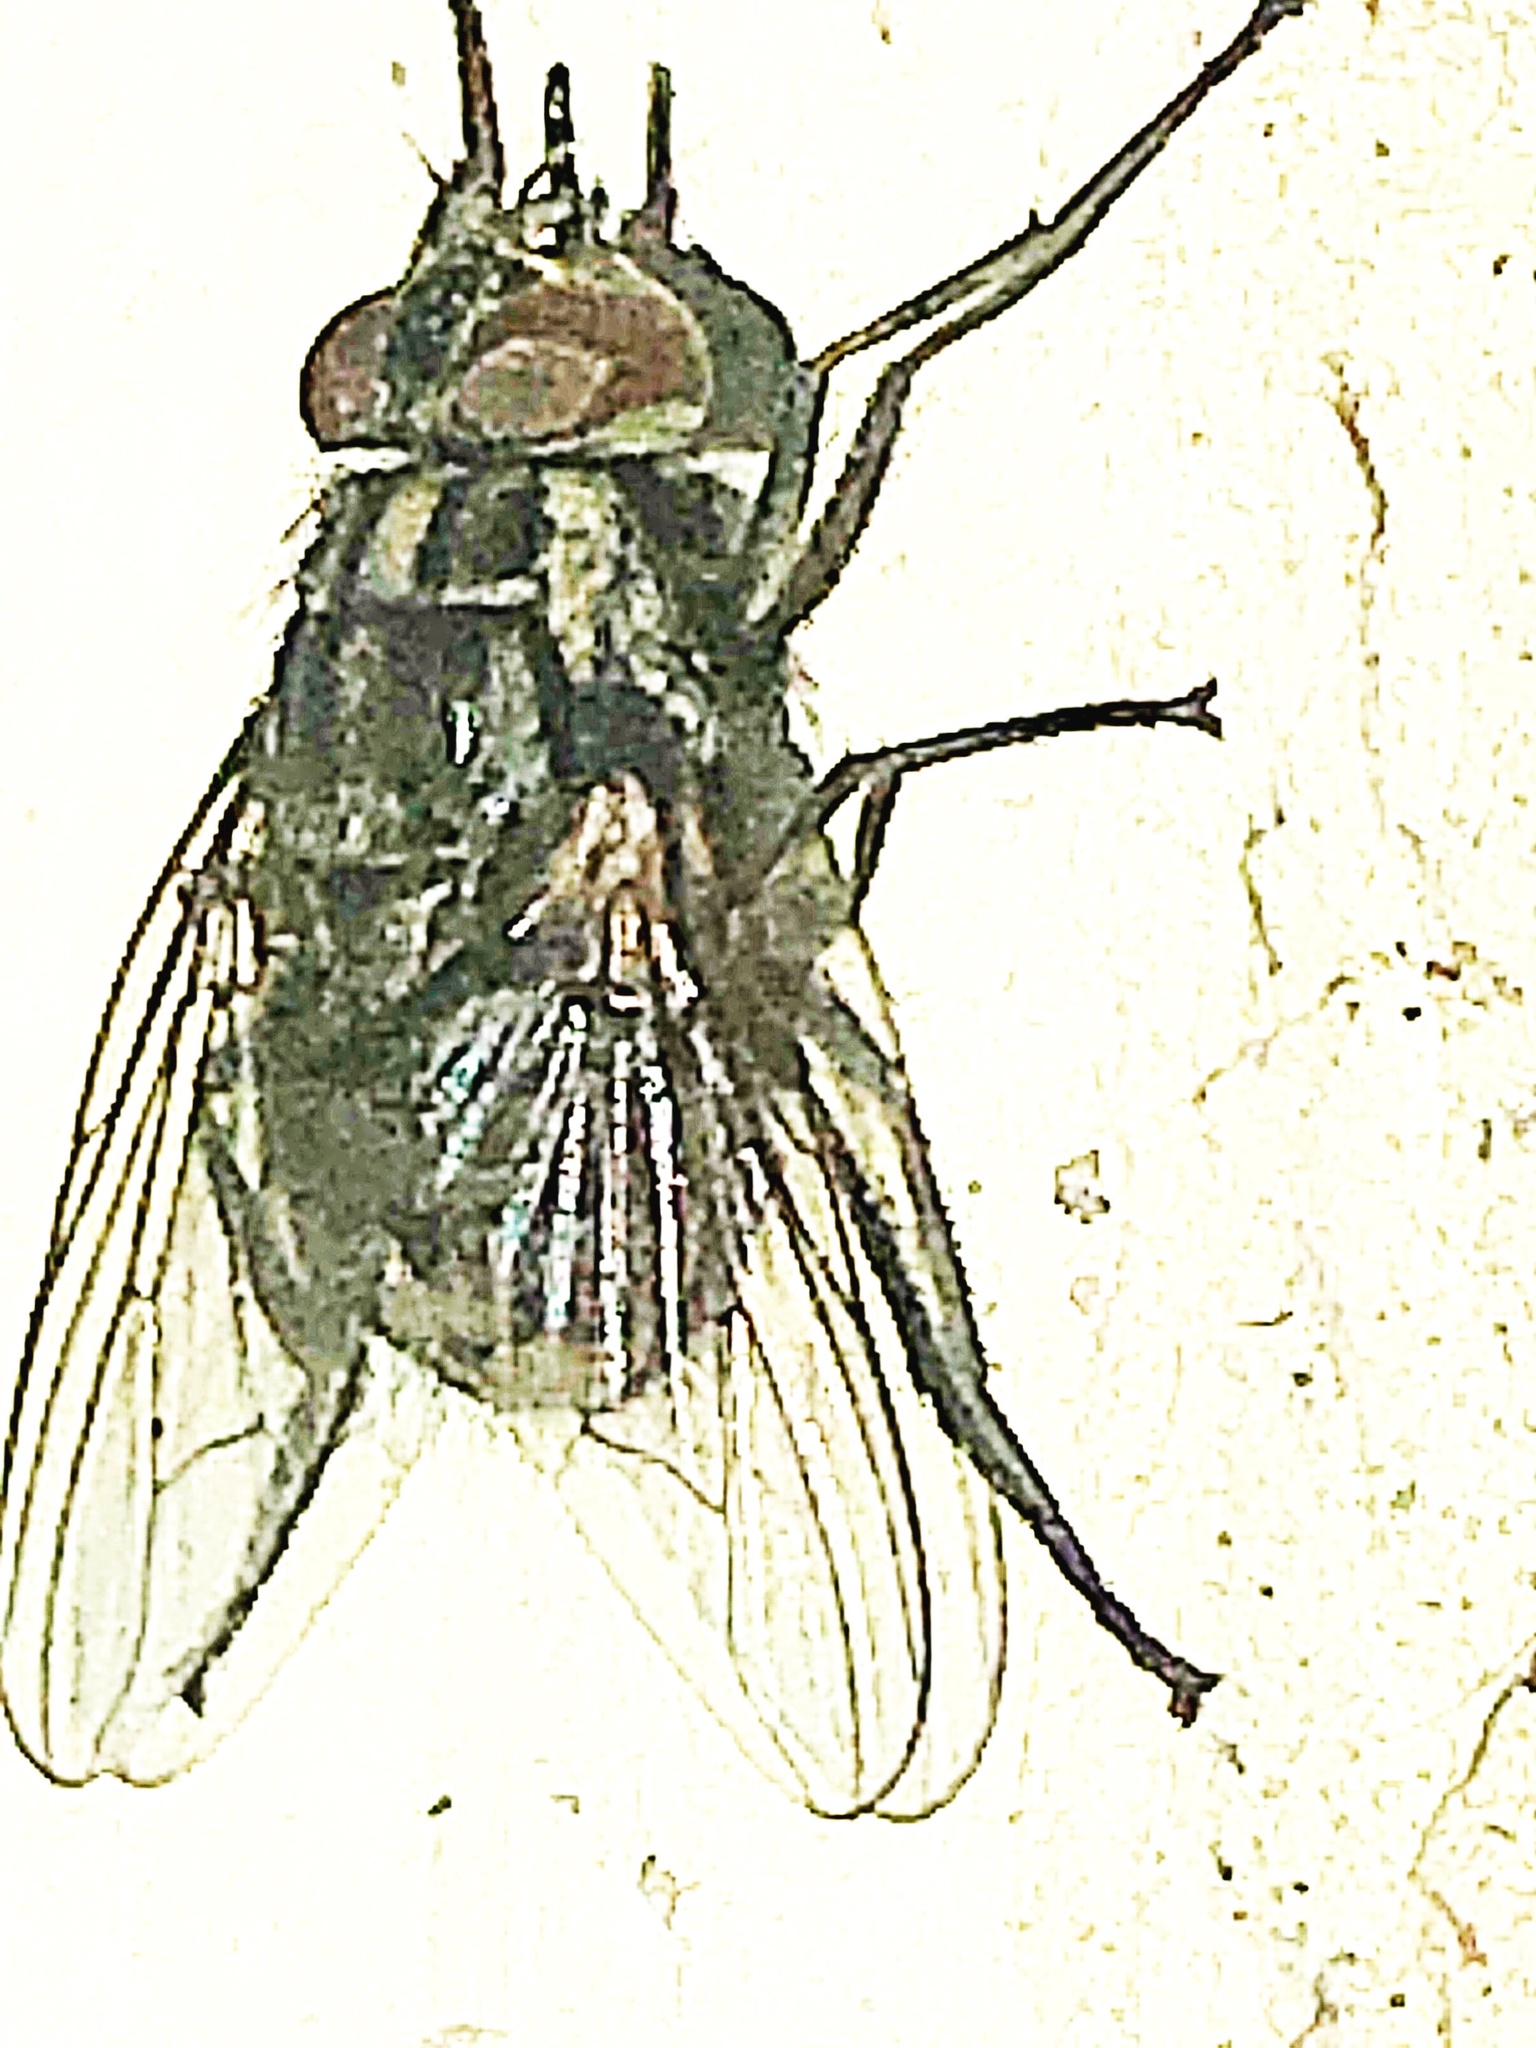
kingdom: Animalia
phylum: Arthropoda
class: Insecta
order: Diptera
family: Muscidae
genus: Stomoxys
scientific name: Stomoxys calcitrans
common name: Stable fly
